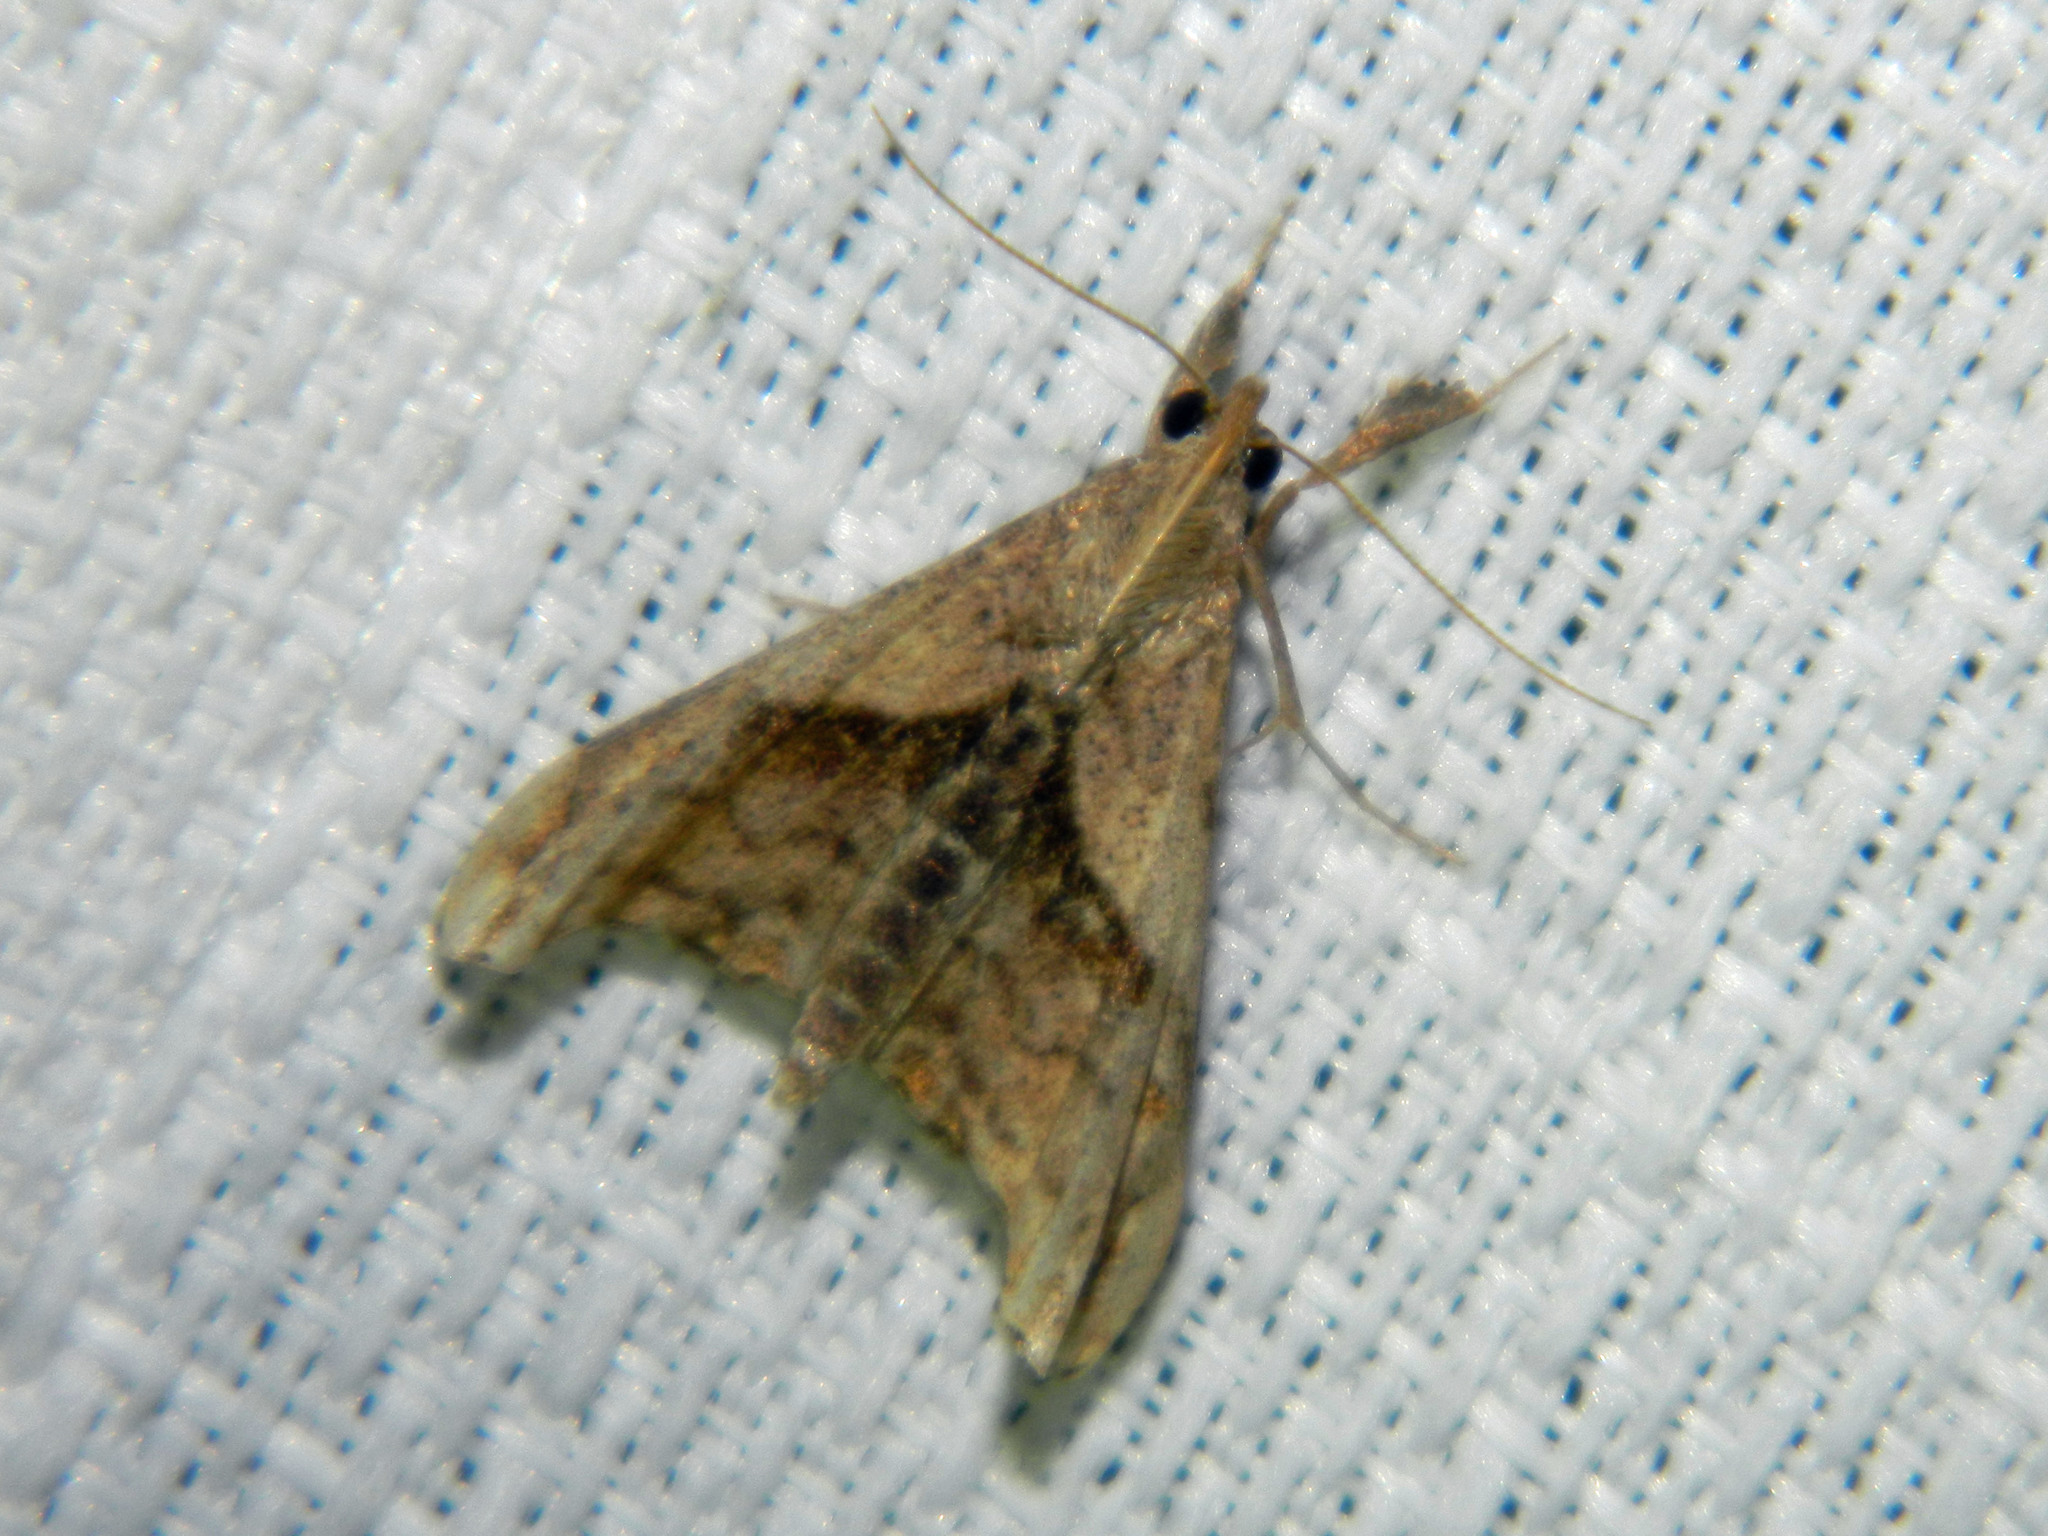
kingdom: Animalia
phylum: Arthropoda
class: Insecta
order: Lepidoptera
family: Erebidae
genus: Palthis
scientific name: Palthis angulalis
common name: Dark-spotted palthis moth
